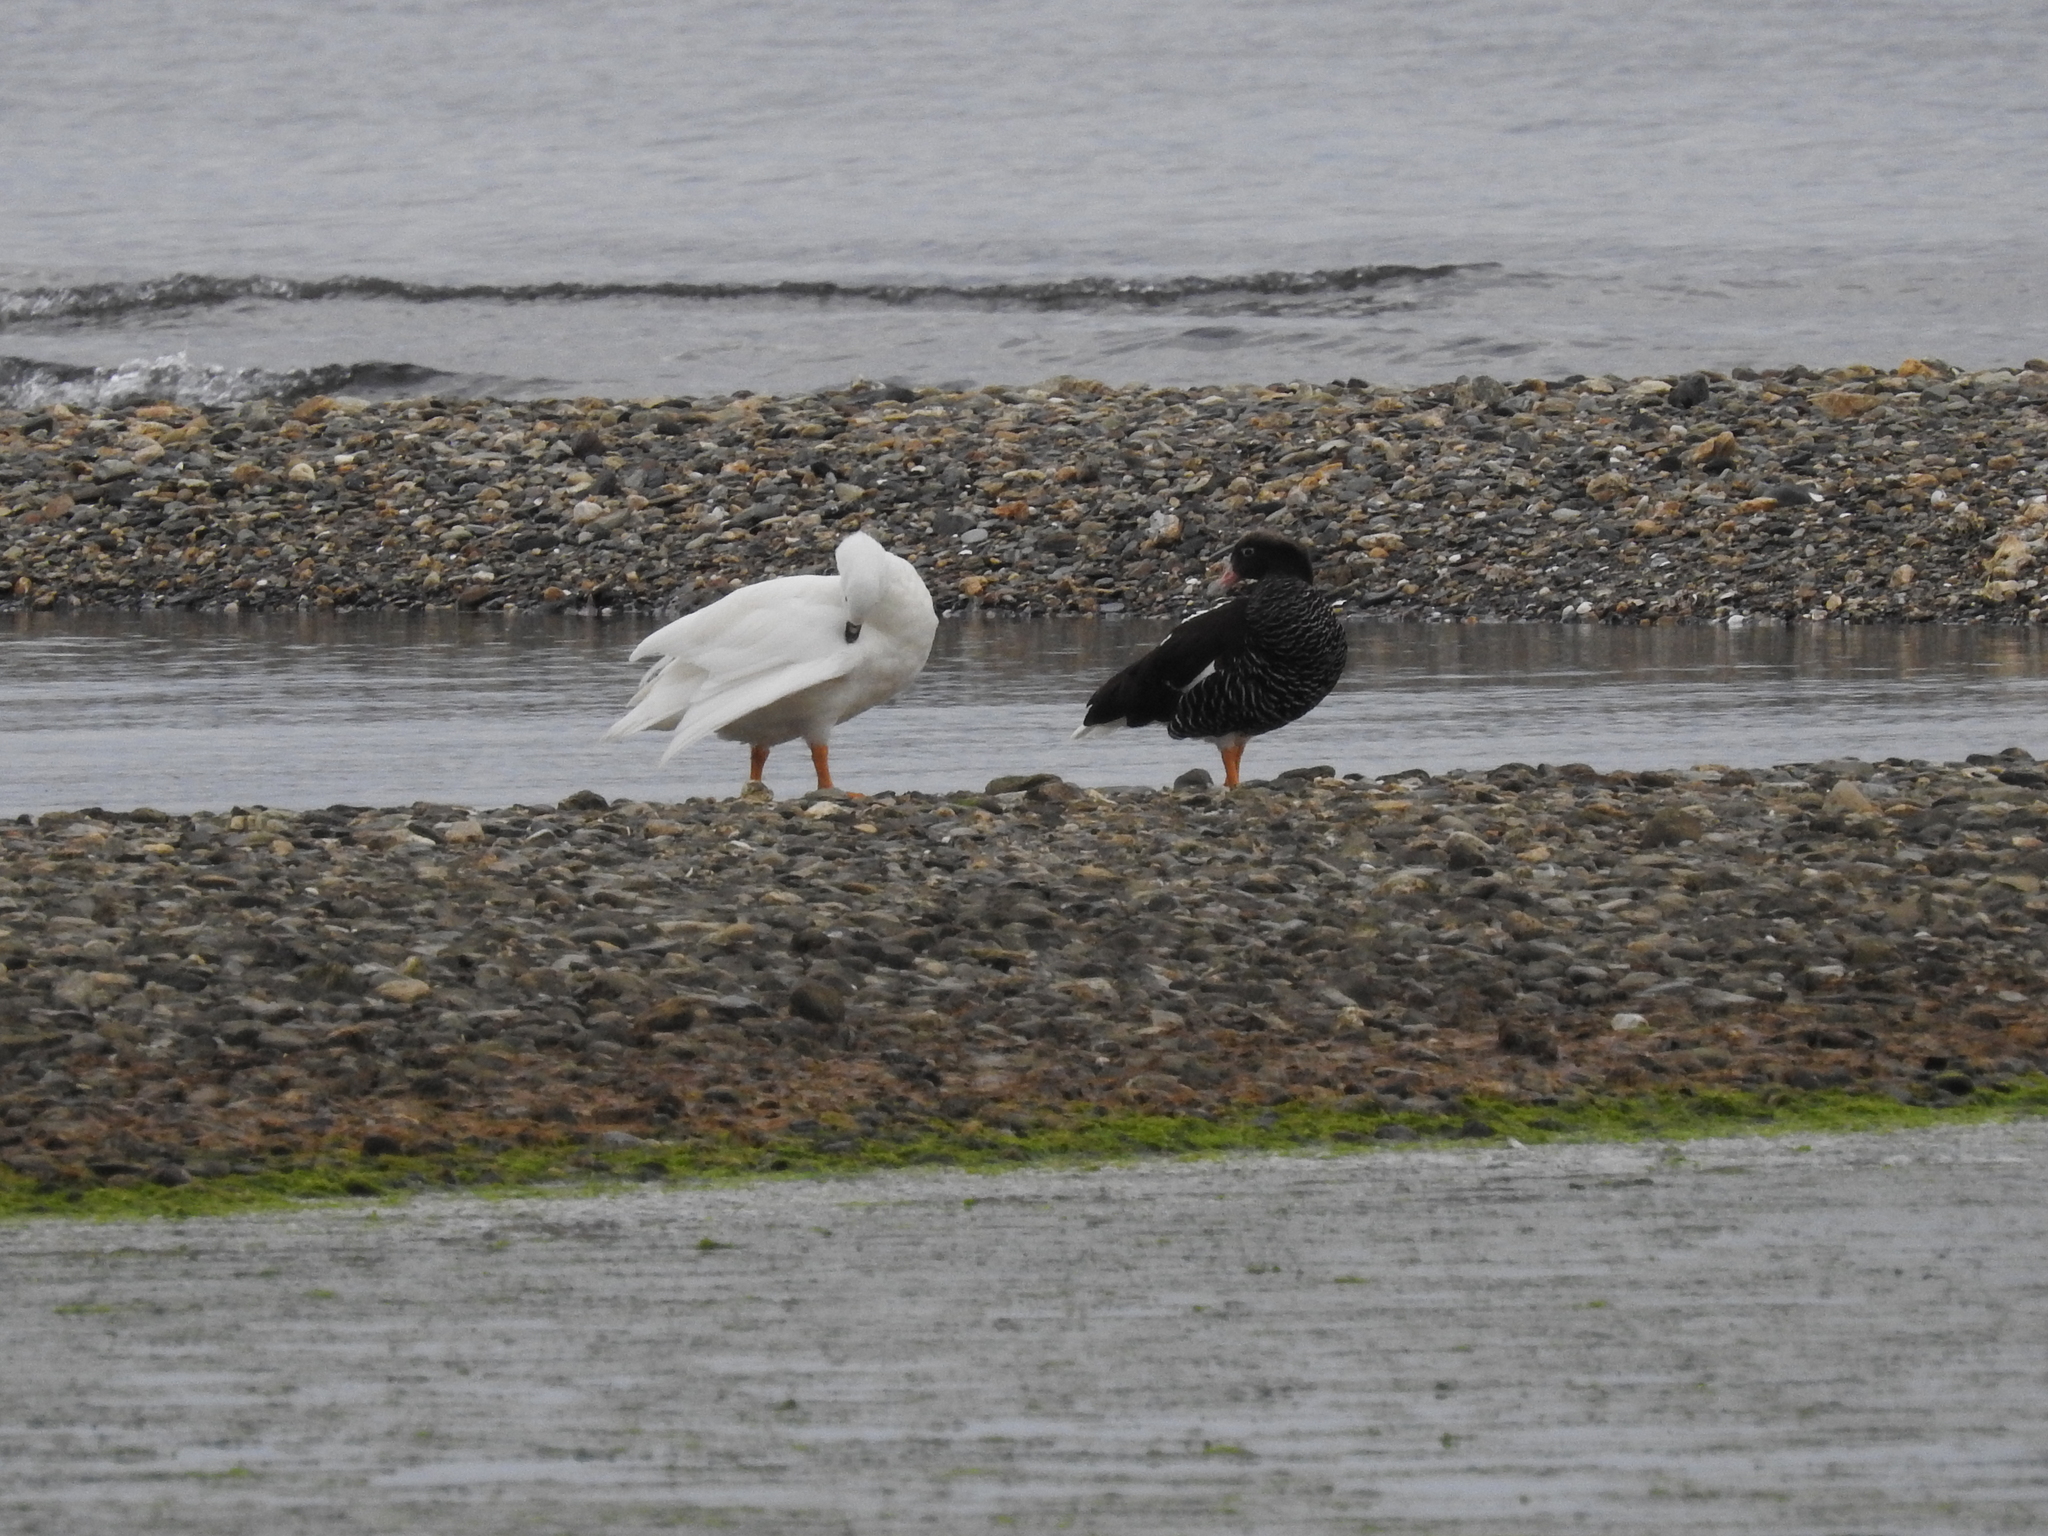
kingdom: Animalia
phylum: Chordata
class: Aves
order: Anseriformes
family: Anatidae
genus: Chloephaga
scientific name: Chloephaga hybrida
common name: Kelp goose
